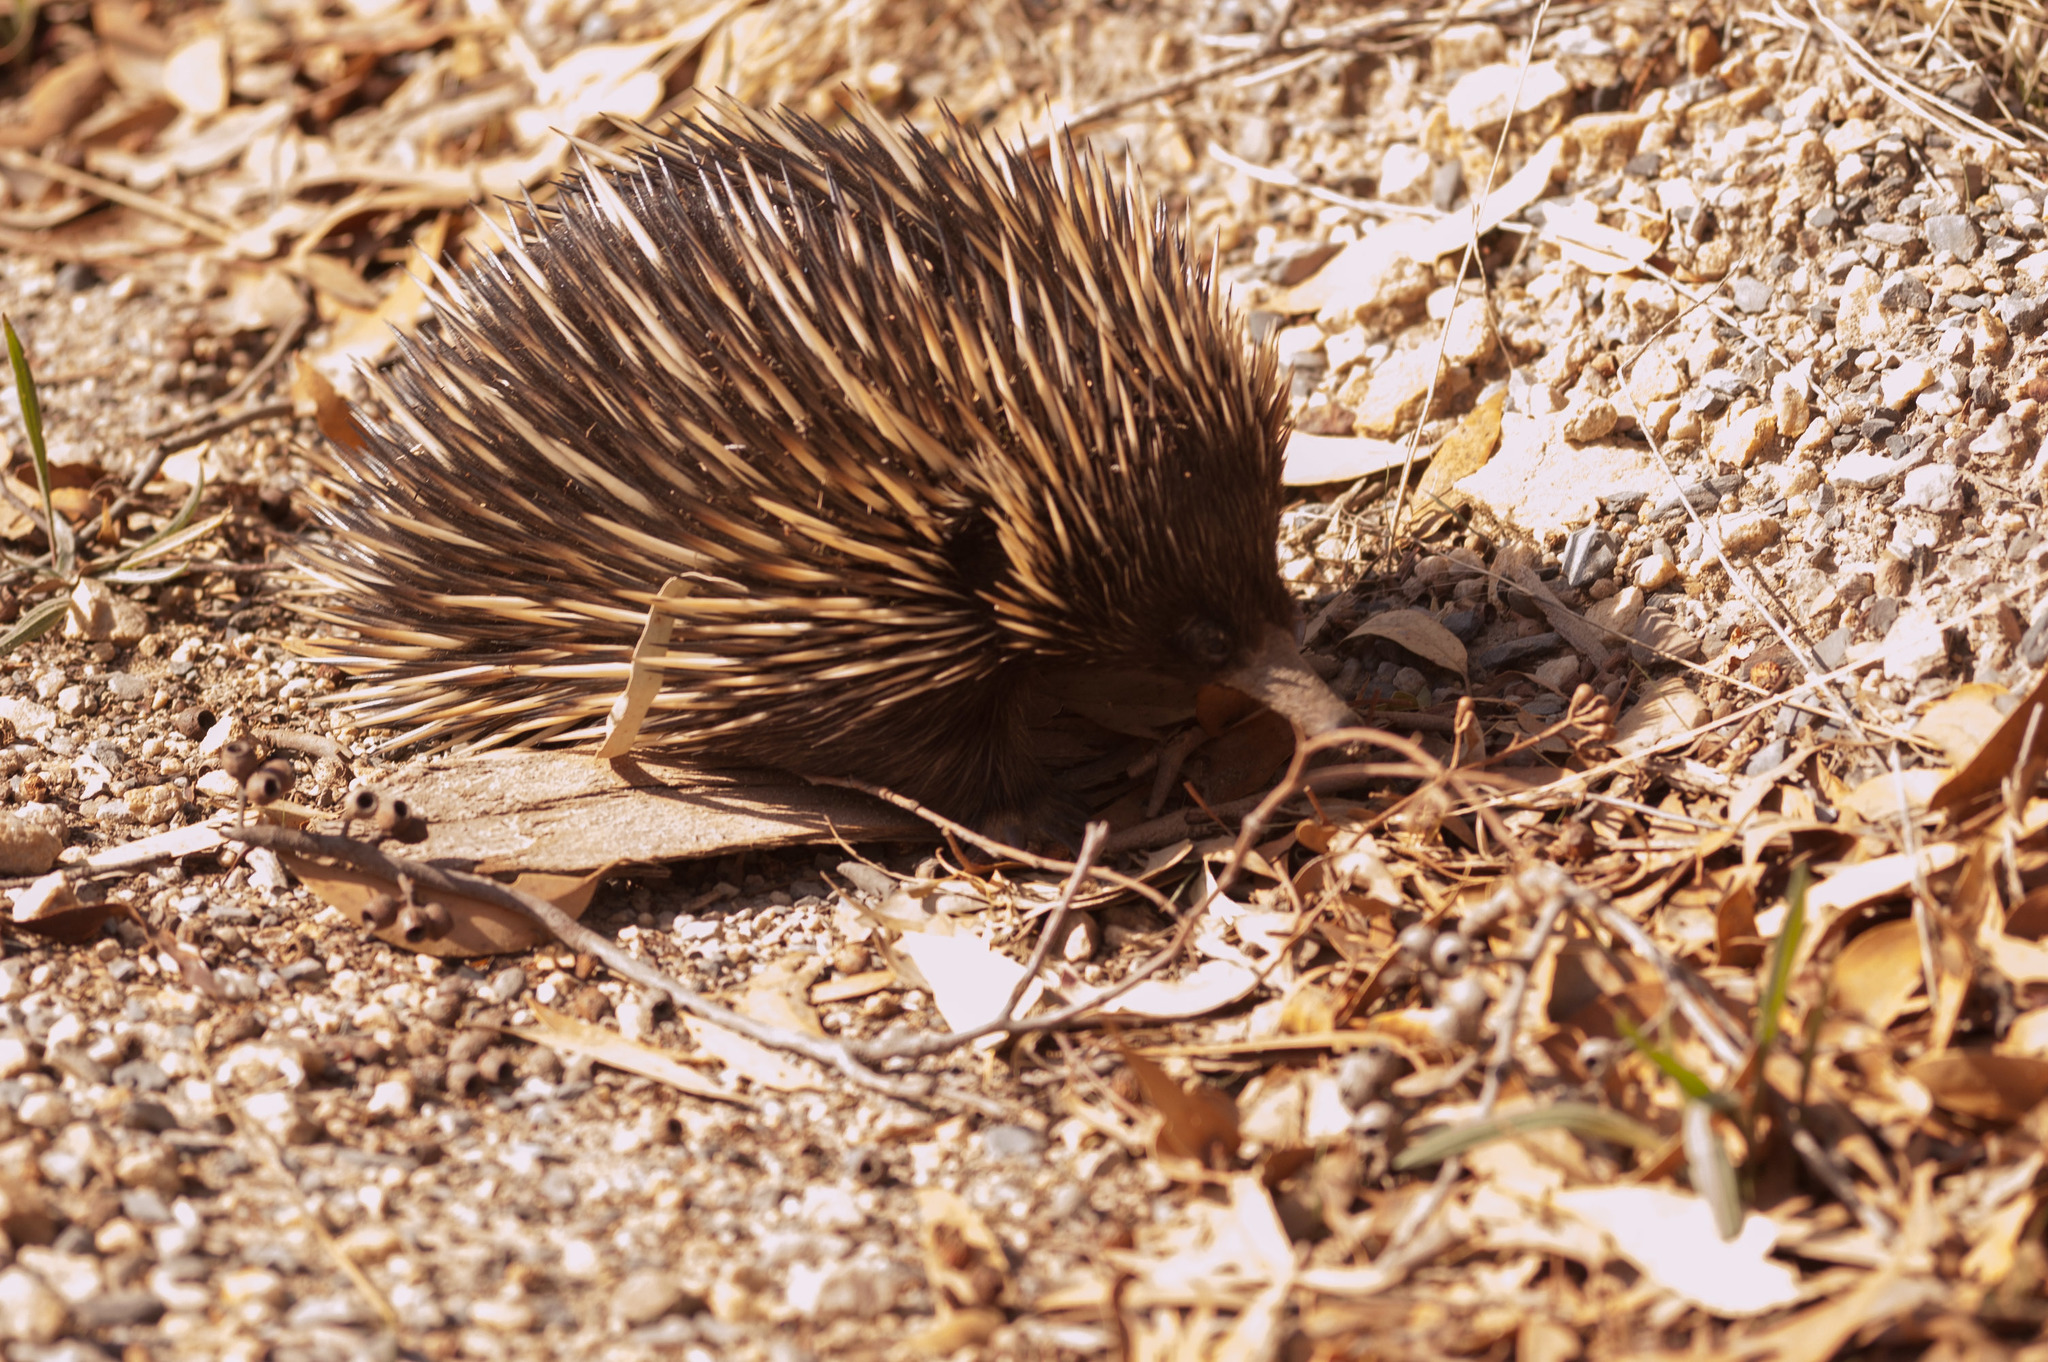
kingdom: Animalia
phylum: Chordata
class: Mammalia
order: Monotremata
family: Tachyglossidae
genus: Tachyglossus
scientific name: Tachyglossus aculeatus
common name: Short-beaked echidna
